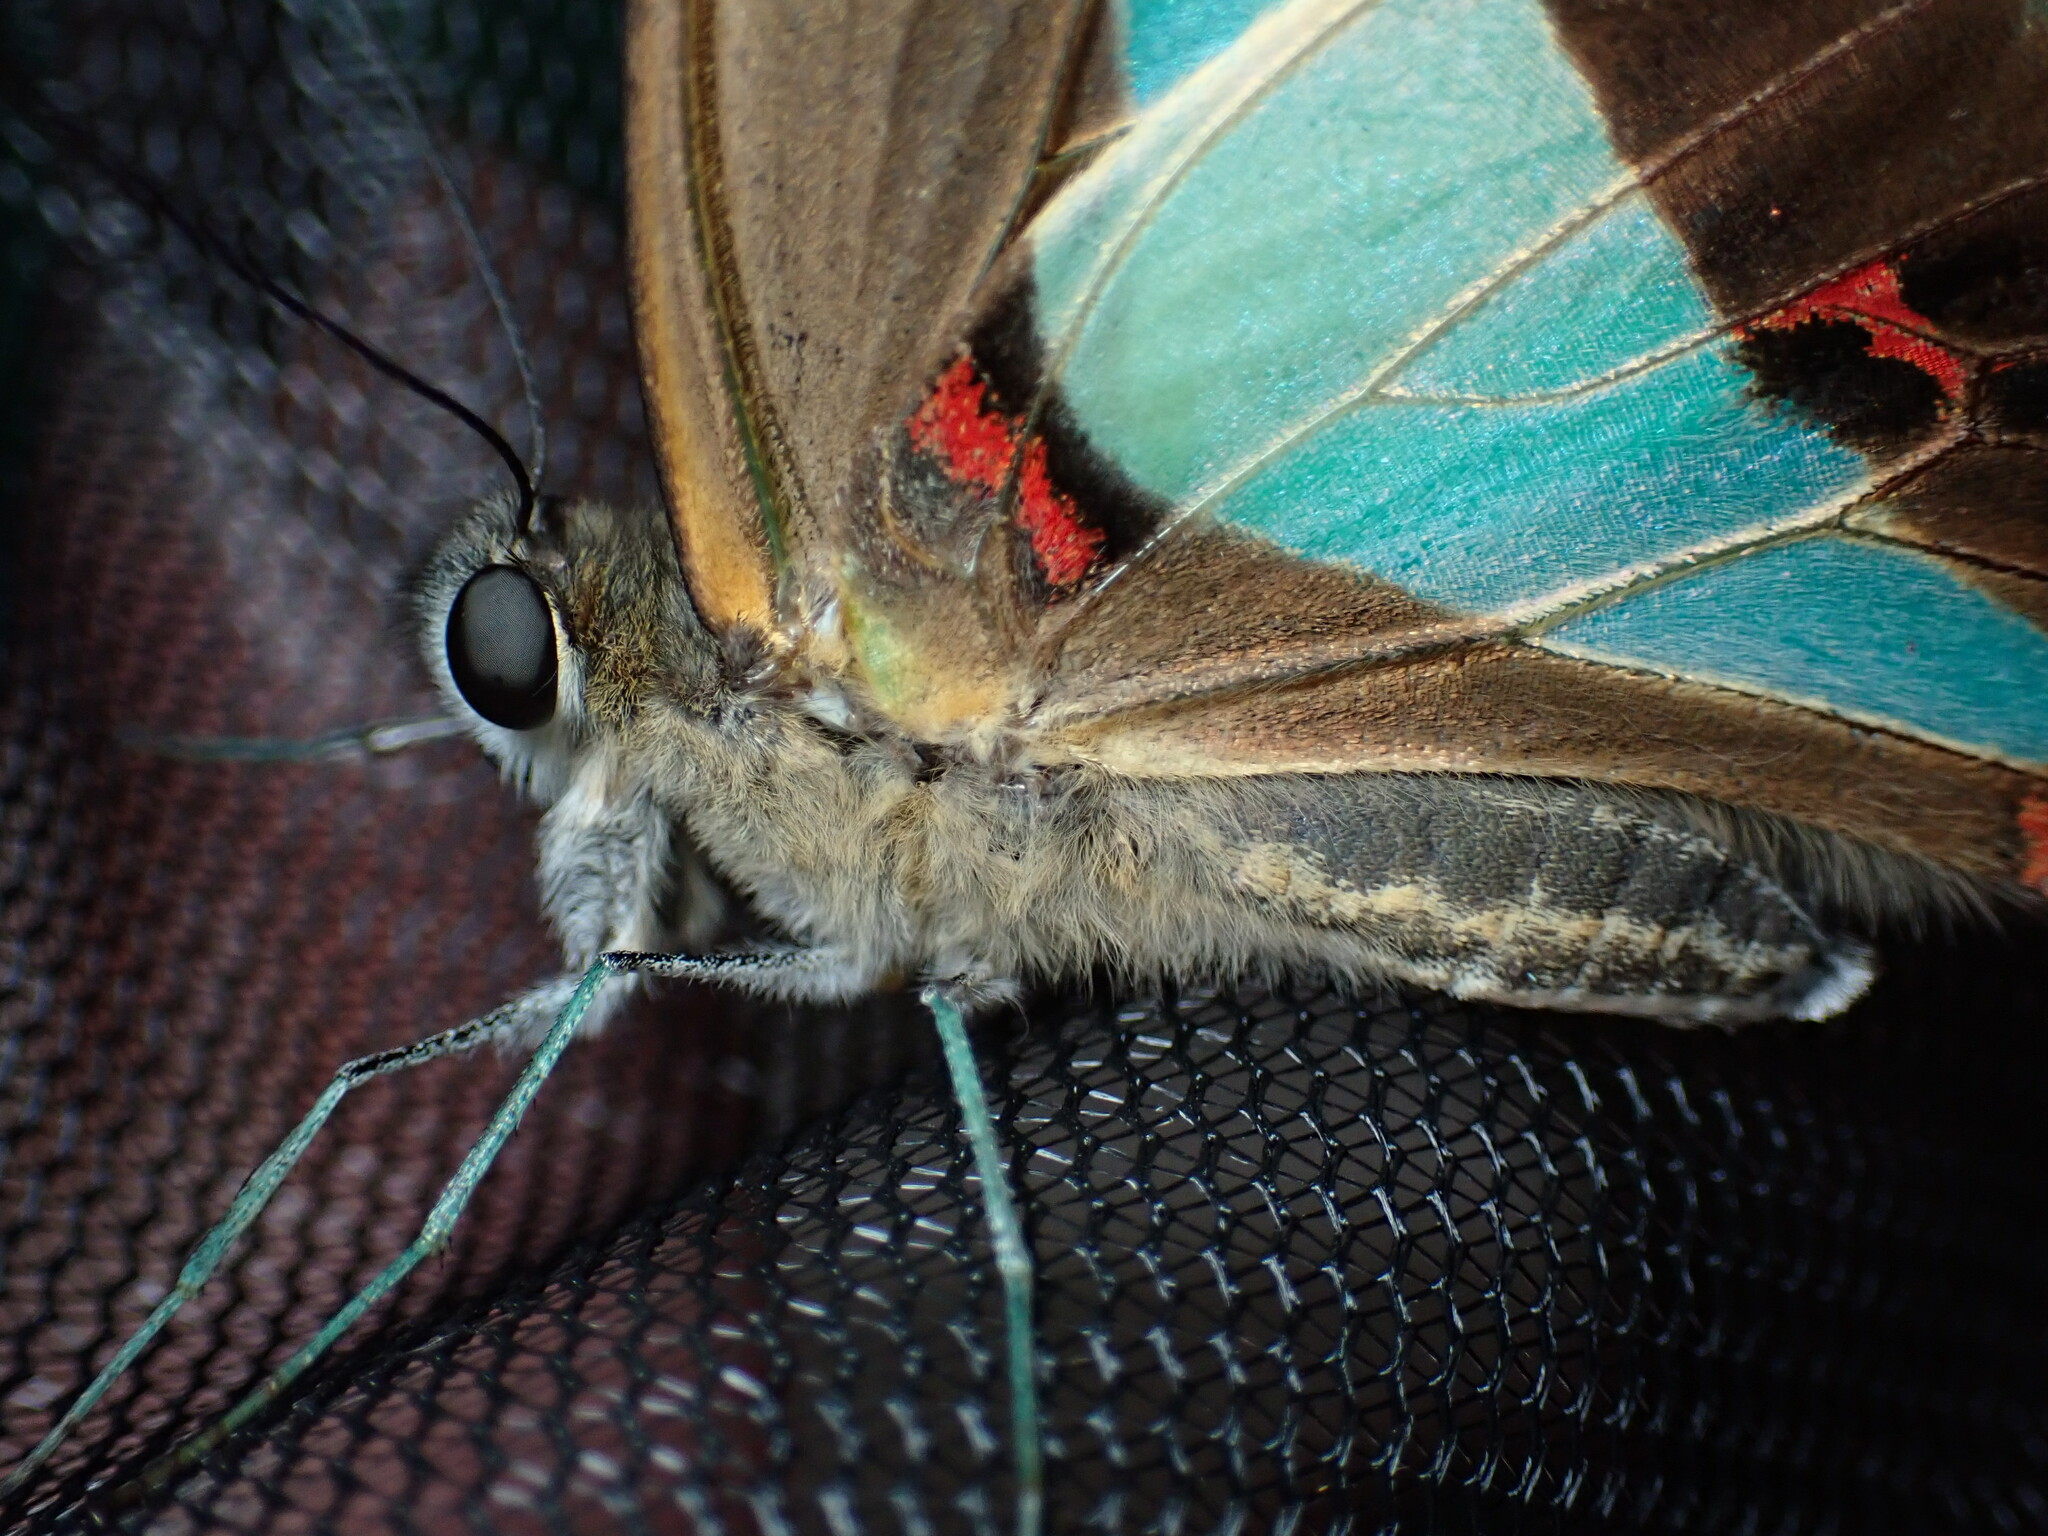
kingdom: Animalia
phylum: Arthropoda
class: Insecta
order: Lepidoptera
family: Papilionidae
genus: Graphium
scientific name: Graphium
